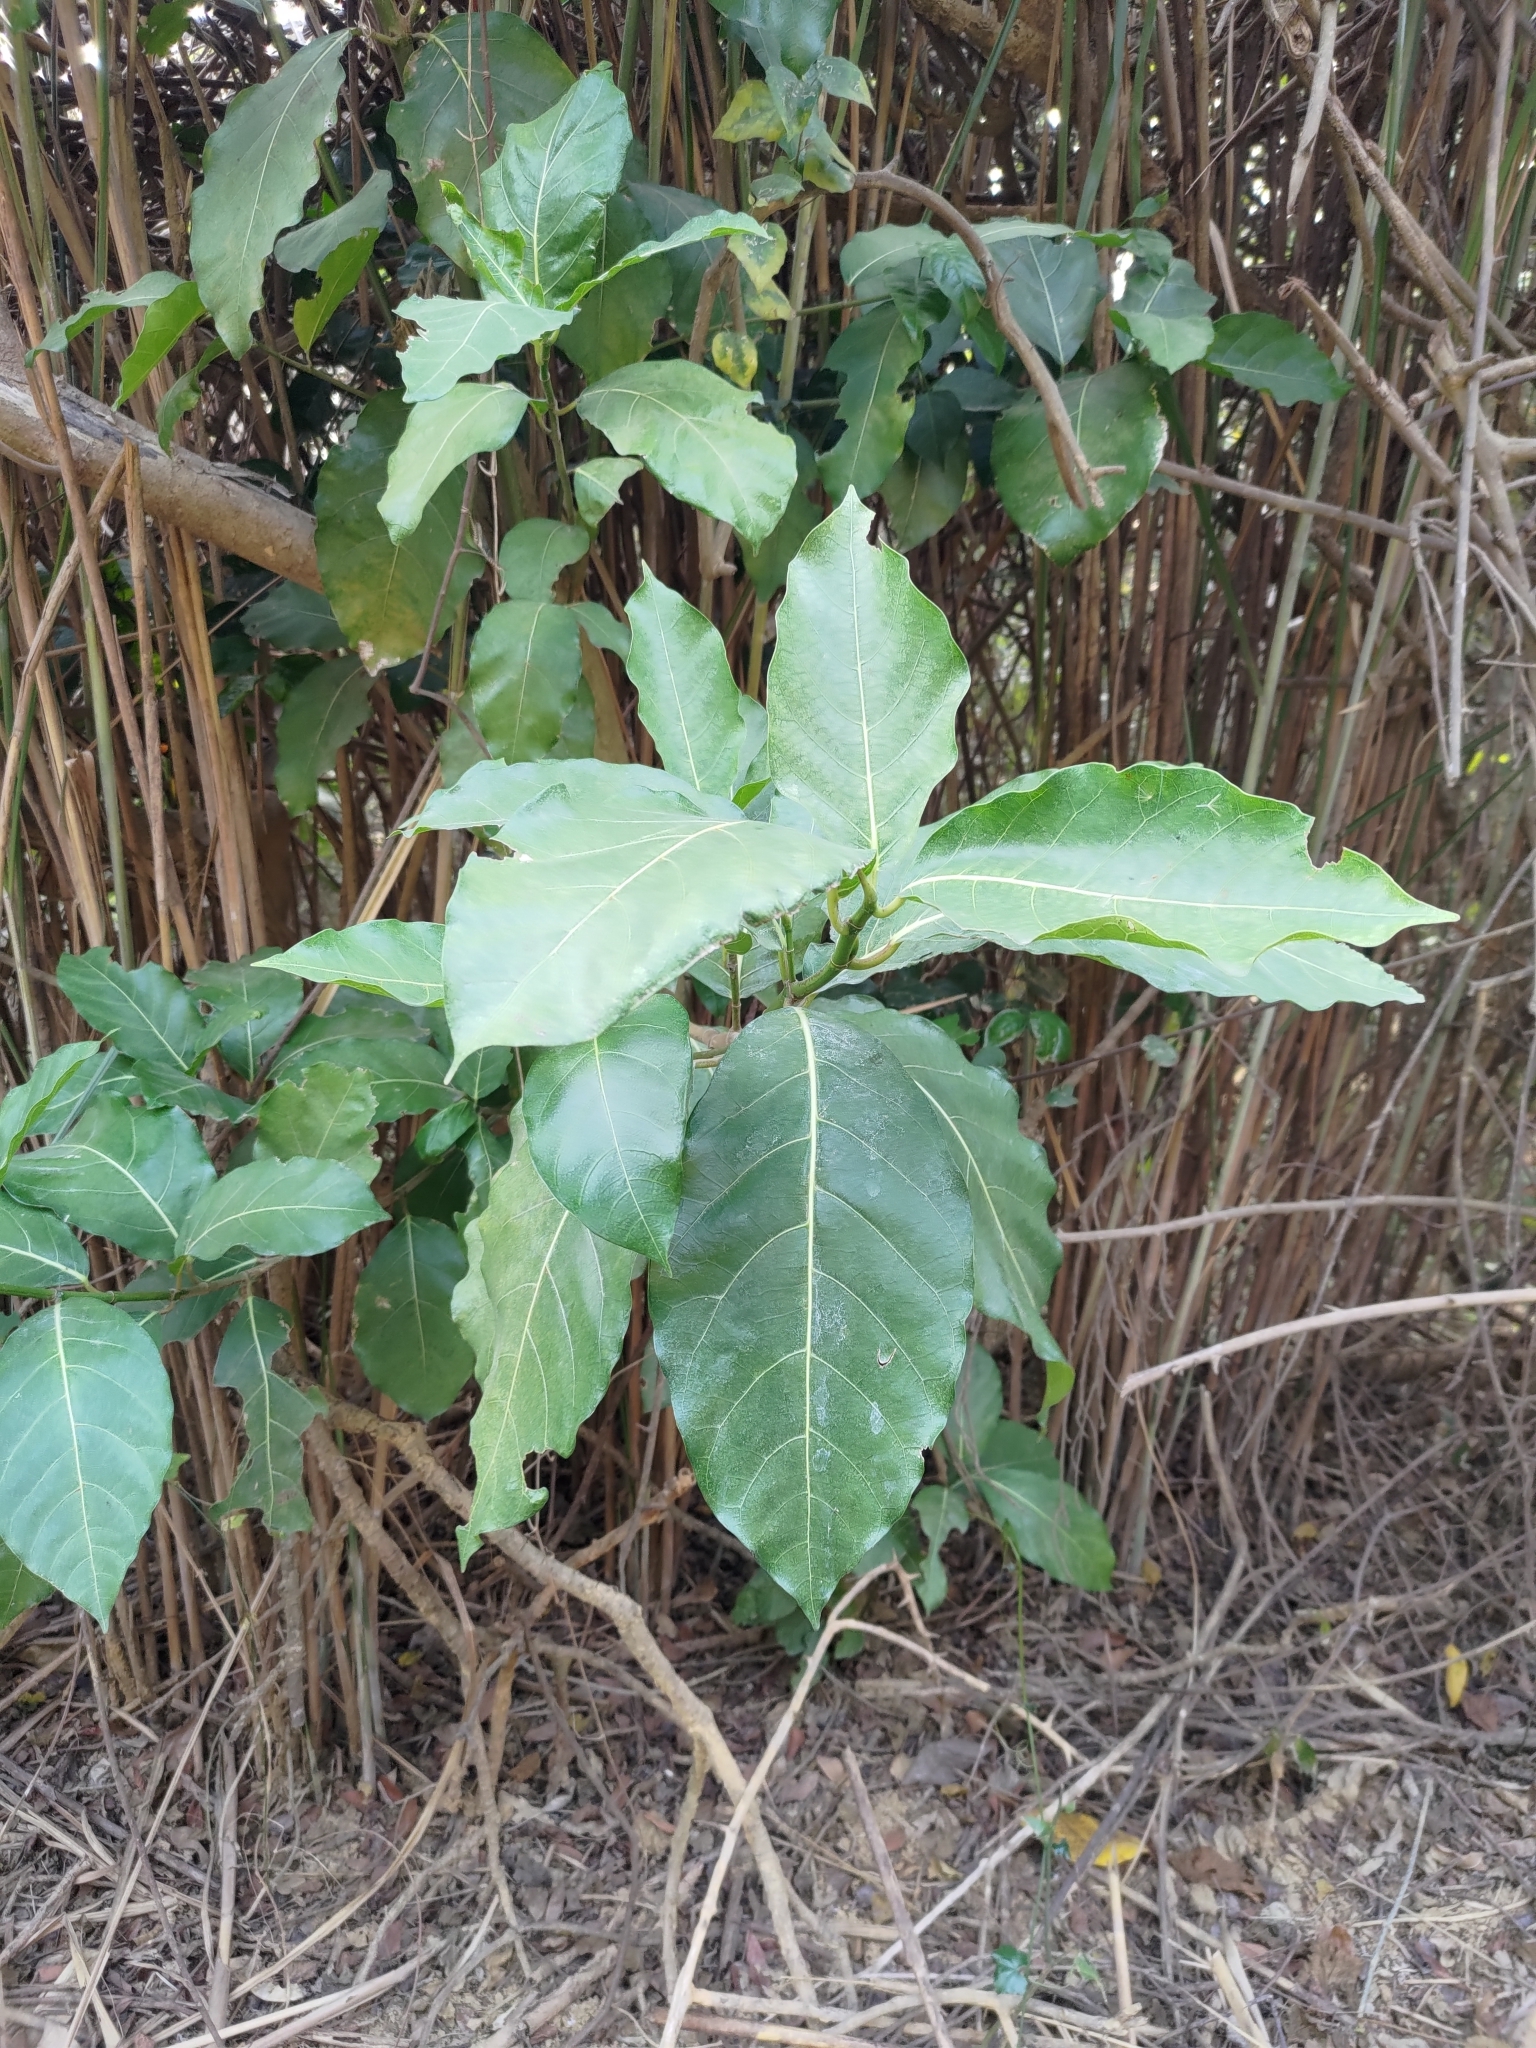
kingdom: Plantae
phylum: Tracheophyta
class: Magnoliopsida
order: Rosales
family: Moraceae
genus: Ficus
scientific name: Ficus septica
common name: Septic fig
